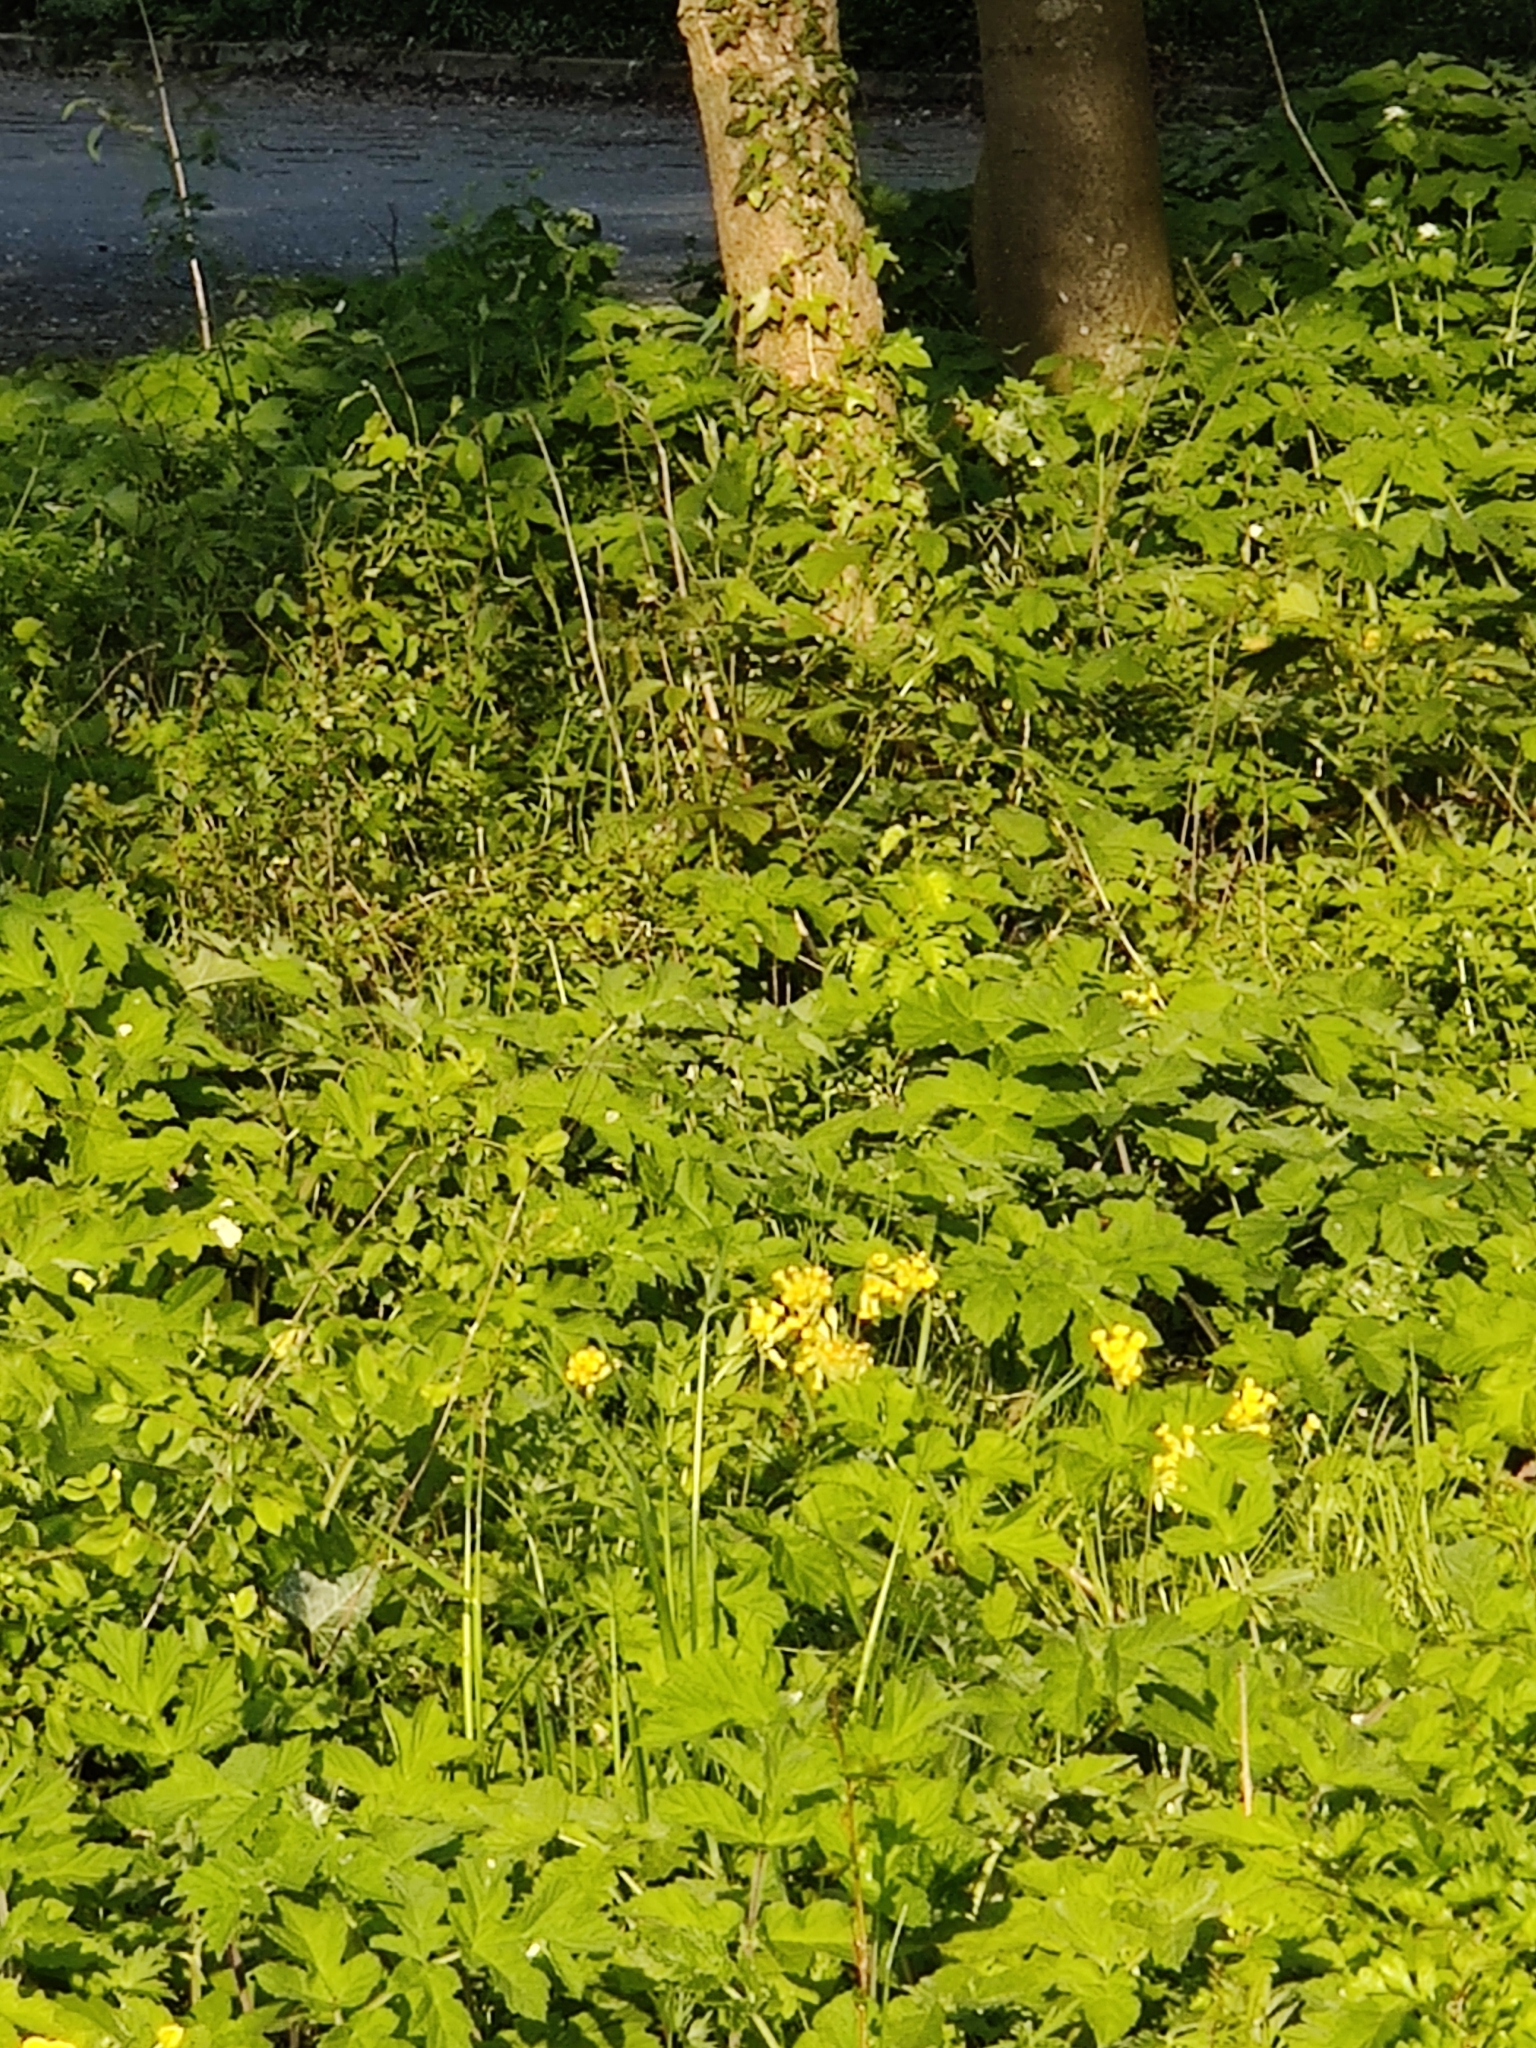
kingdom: Plantae
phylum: Tracheophyta
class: Magnoliopsida
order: Apiales
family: Apiaceae
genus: Heracleum
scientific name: Heracleum sphondylium
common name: Hogweed
